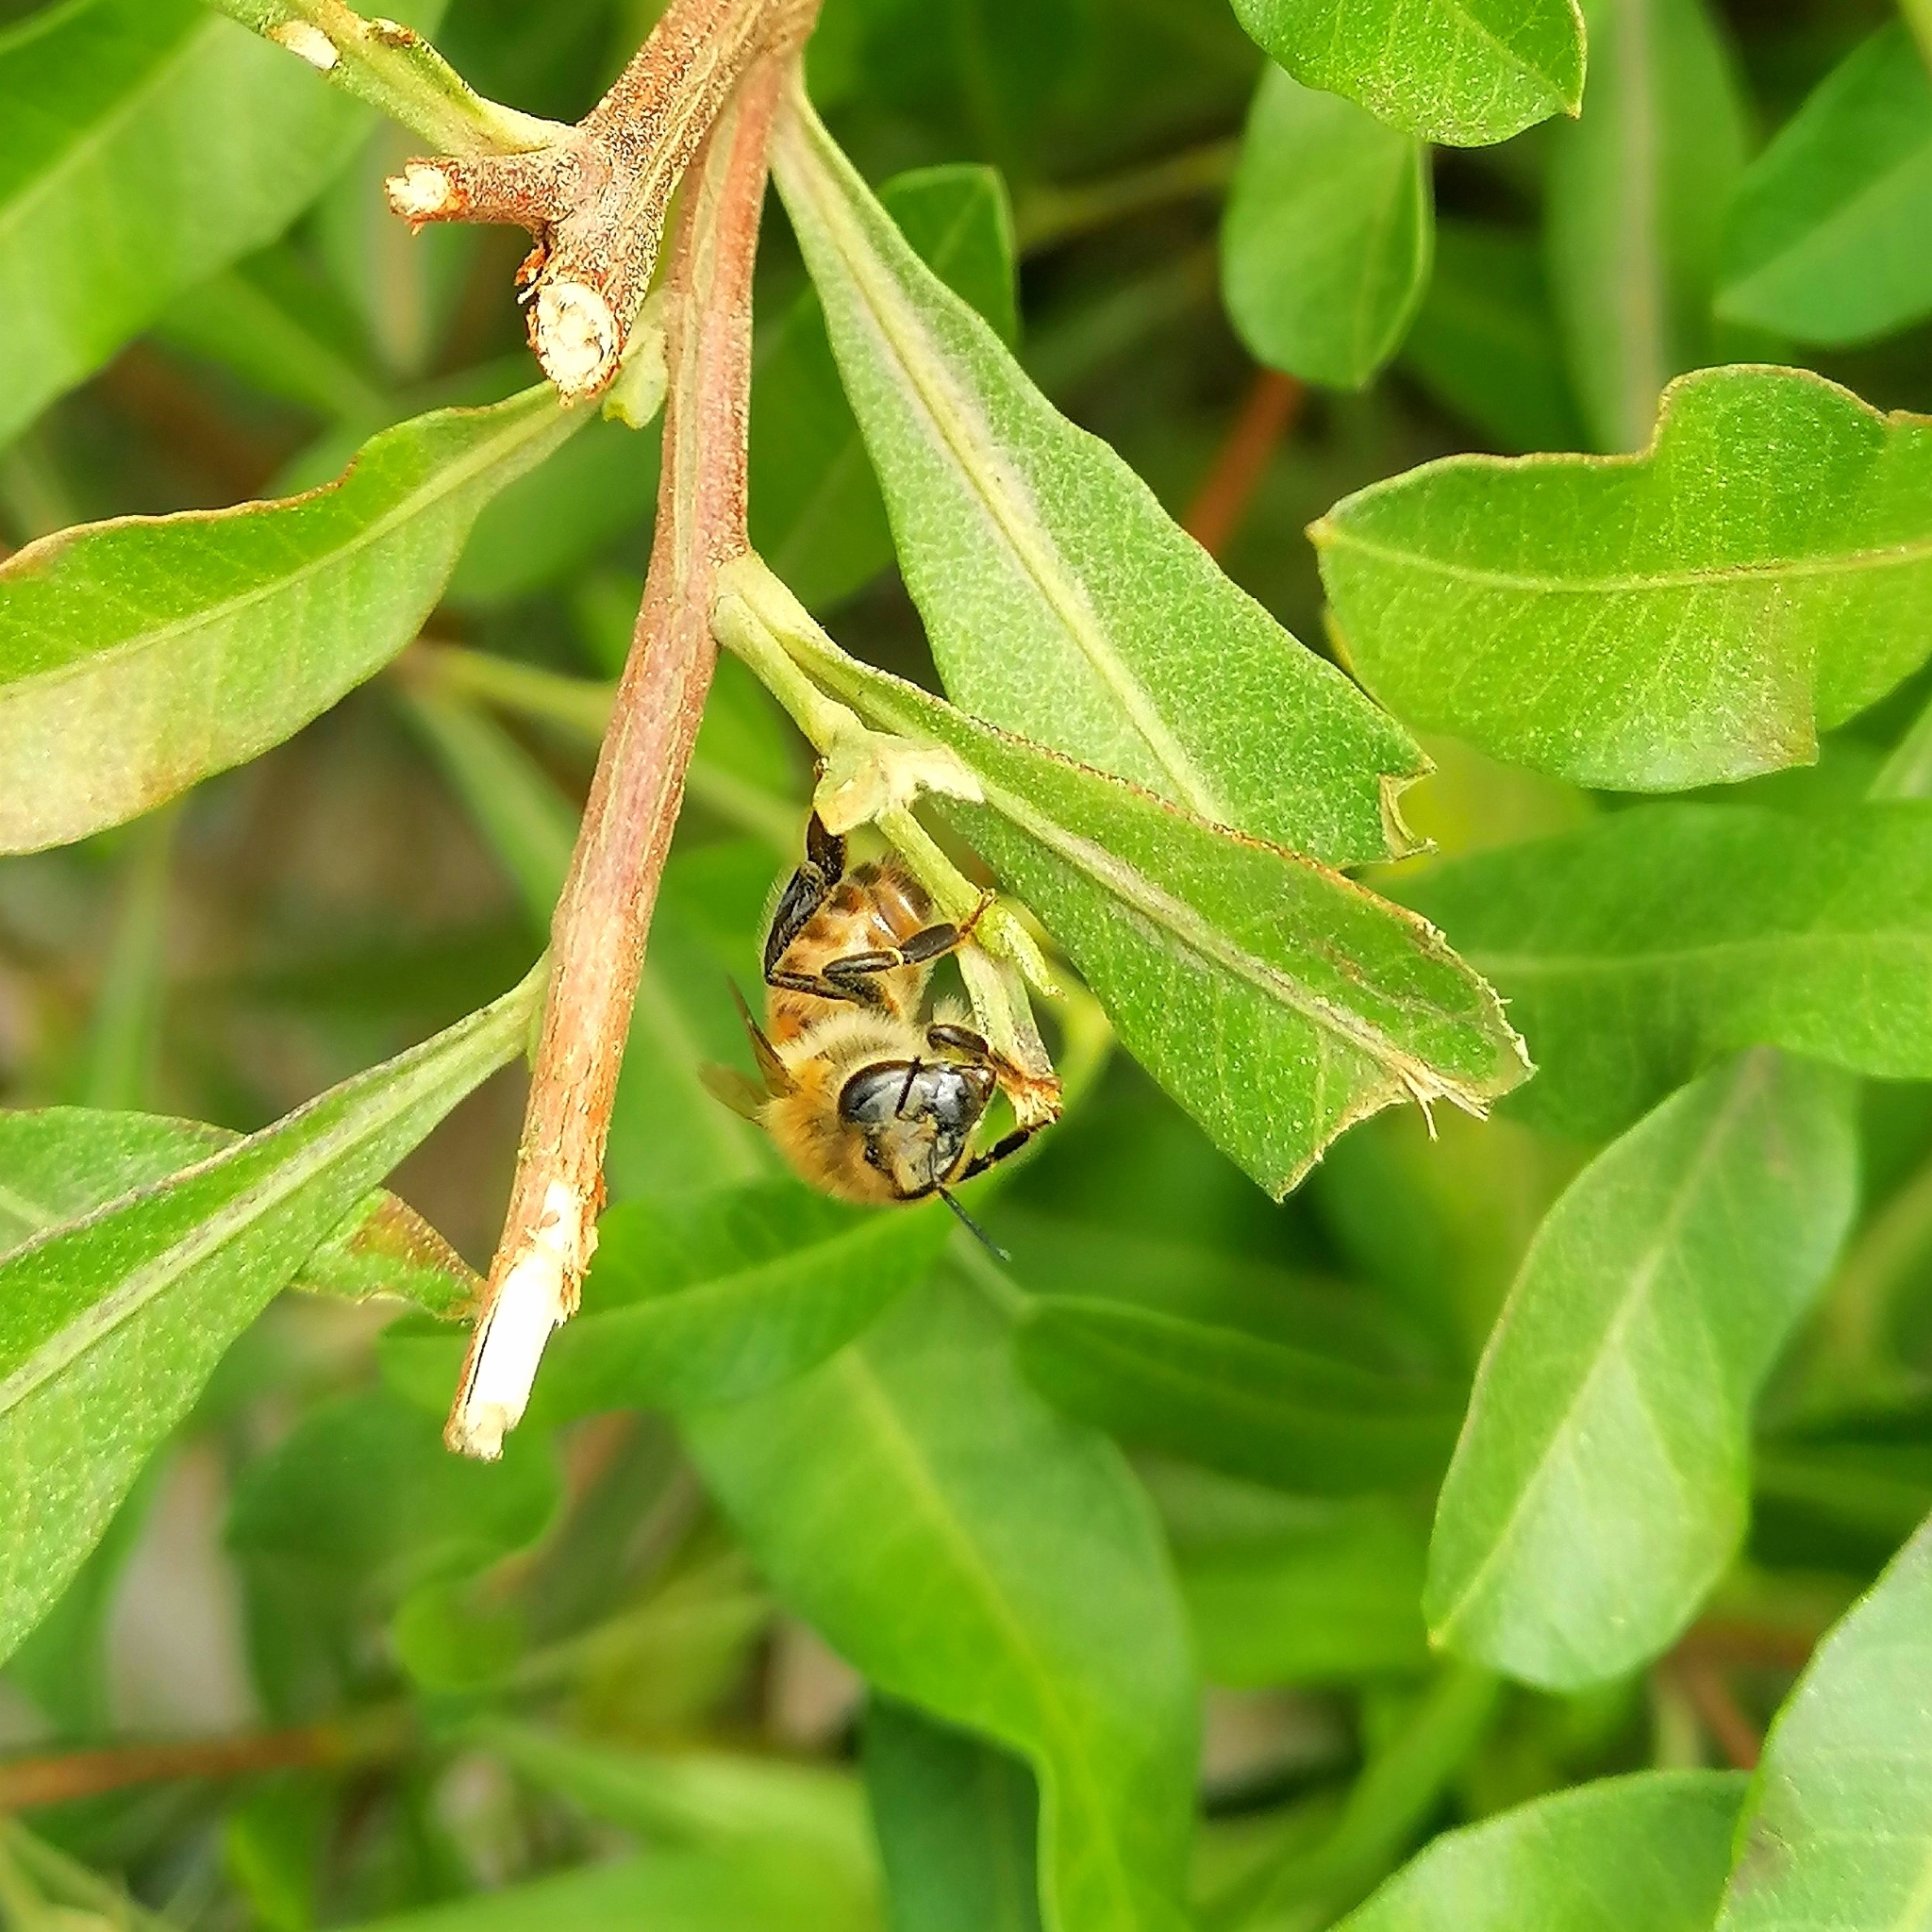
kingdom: Animalia
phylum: Arthropoda
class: Insecta
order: Hymenoptera
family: Apidae
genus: Apis
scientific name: Apis mellifera
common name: Honey bee
